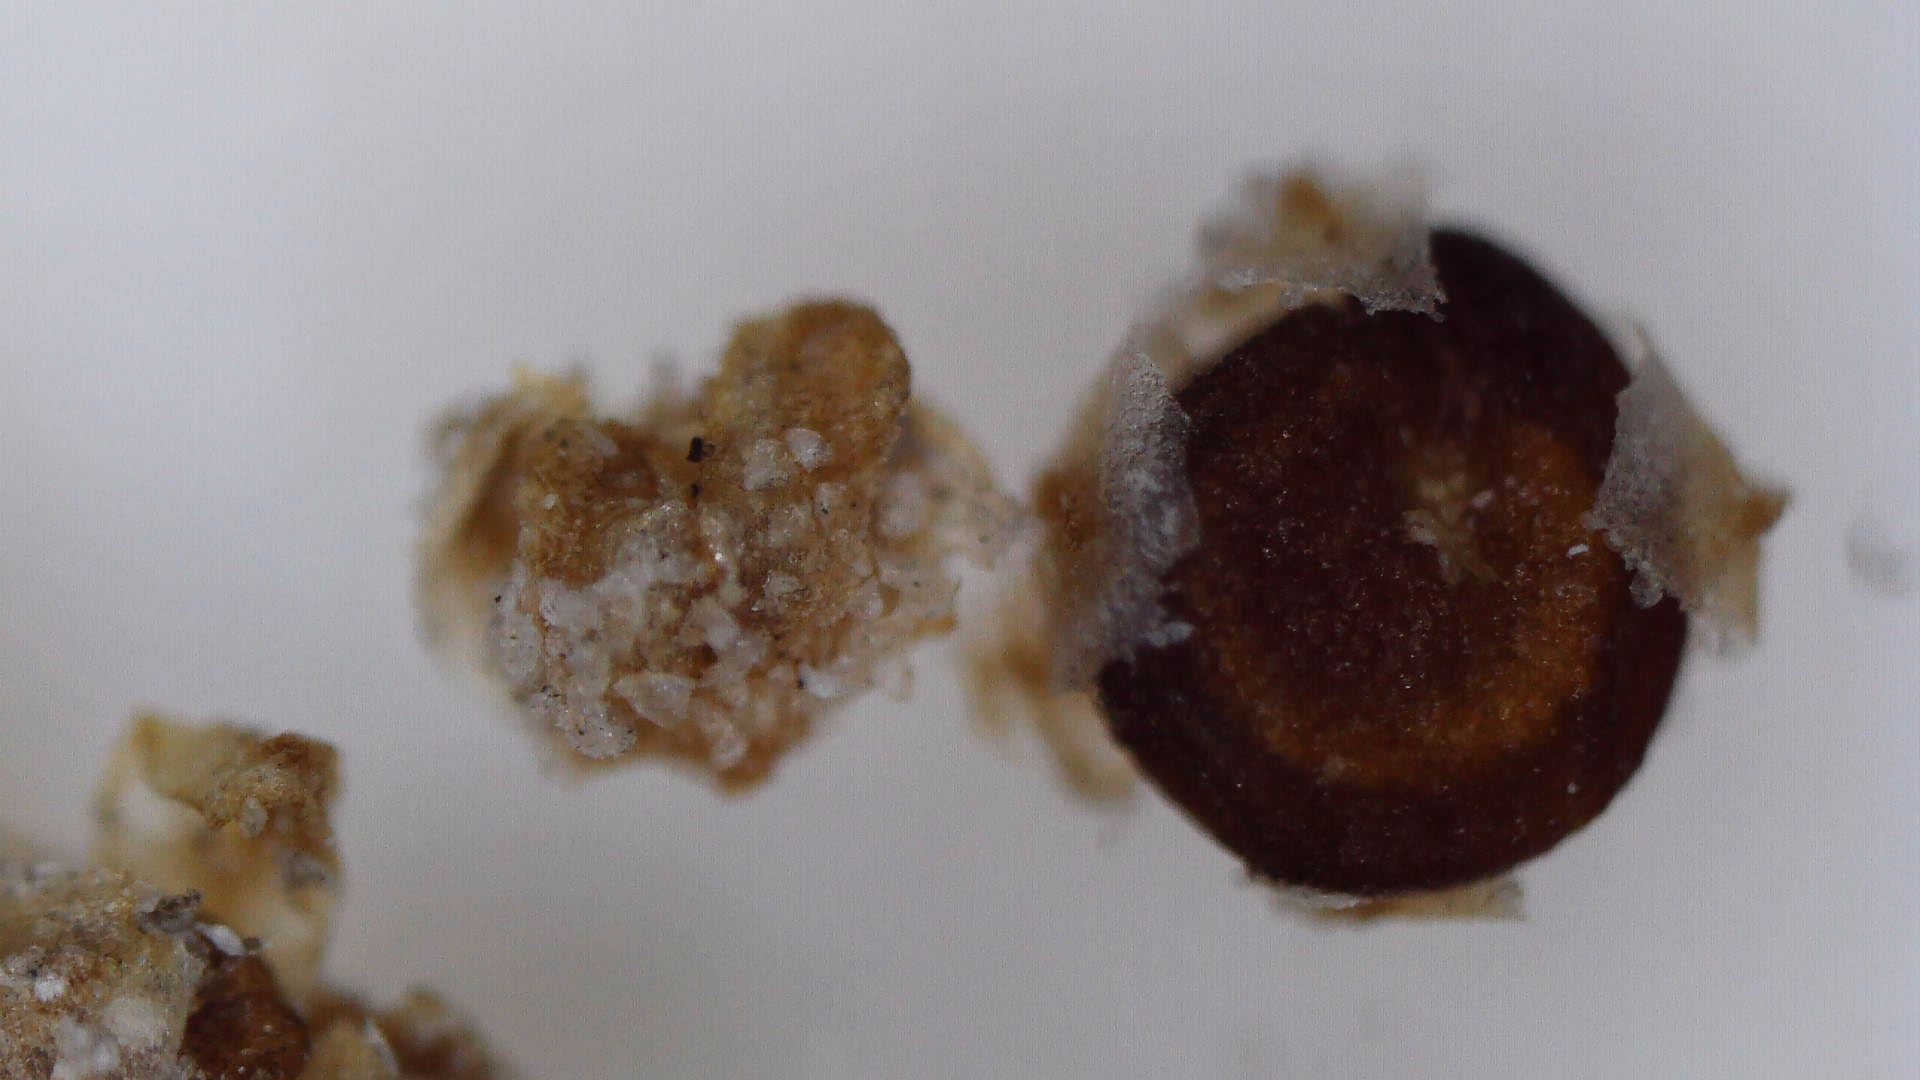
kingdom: Plantae
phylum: Tracheophyta
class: Magnoliopsida
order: Caryophyllales
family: Amaranthaceae
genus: Atriplex
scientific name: Atriplex patula
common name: Common orache
